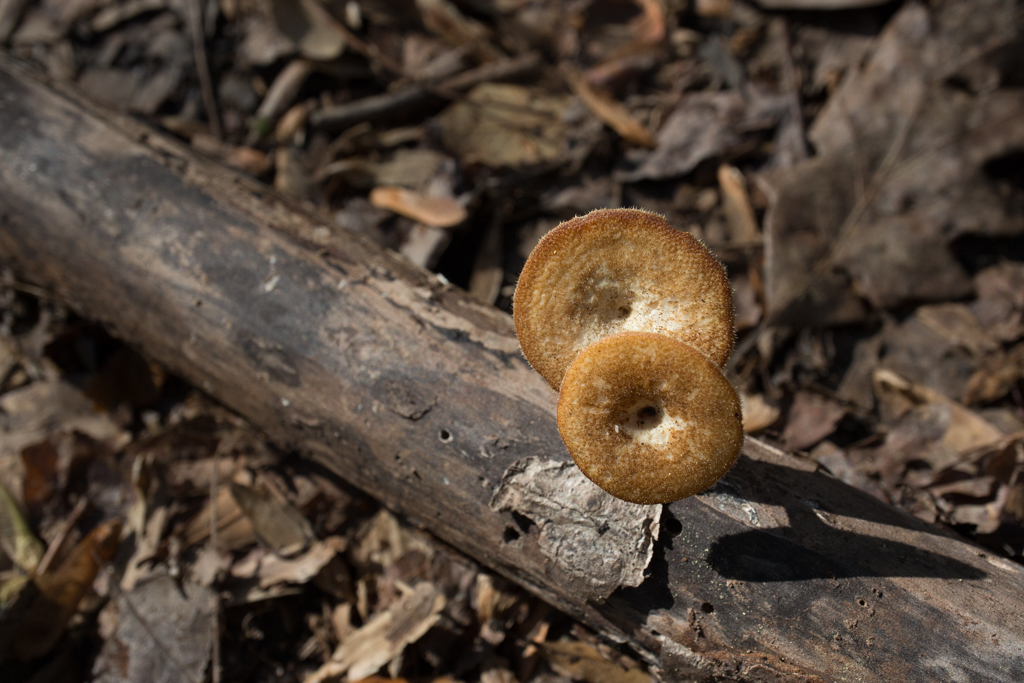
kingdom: Fungi
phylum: Basidiomycota
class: Agaricomycetes
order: Polyporales
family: Polyporaceae
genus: Lentinus
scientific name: Lentinus arcularius
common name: Spring polypore
